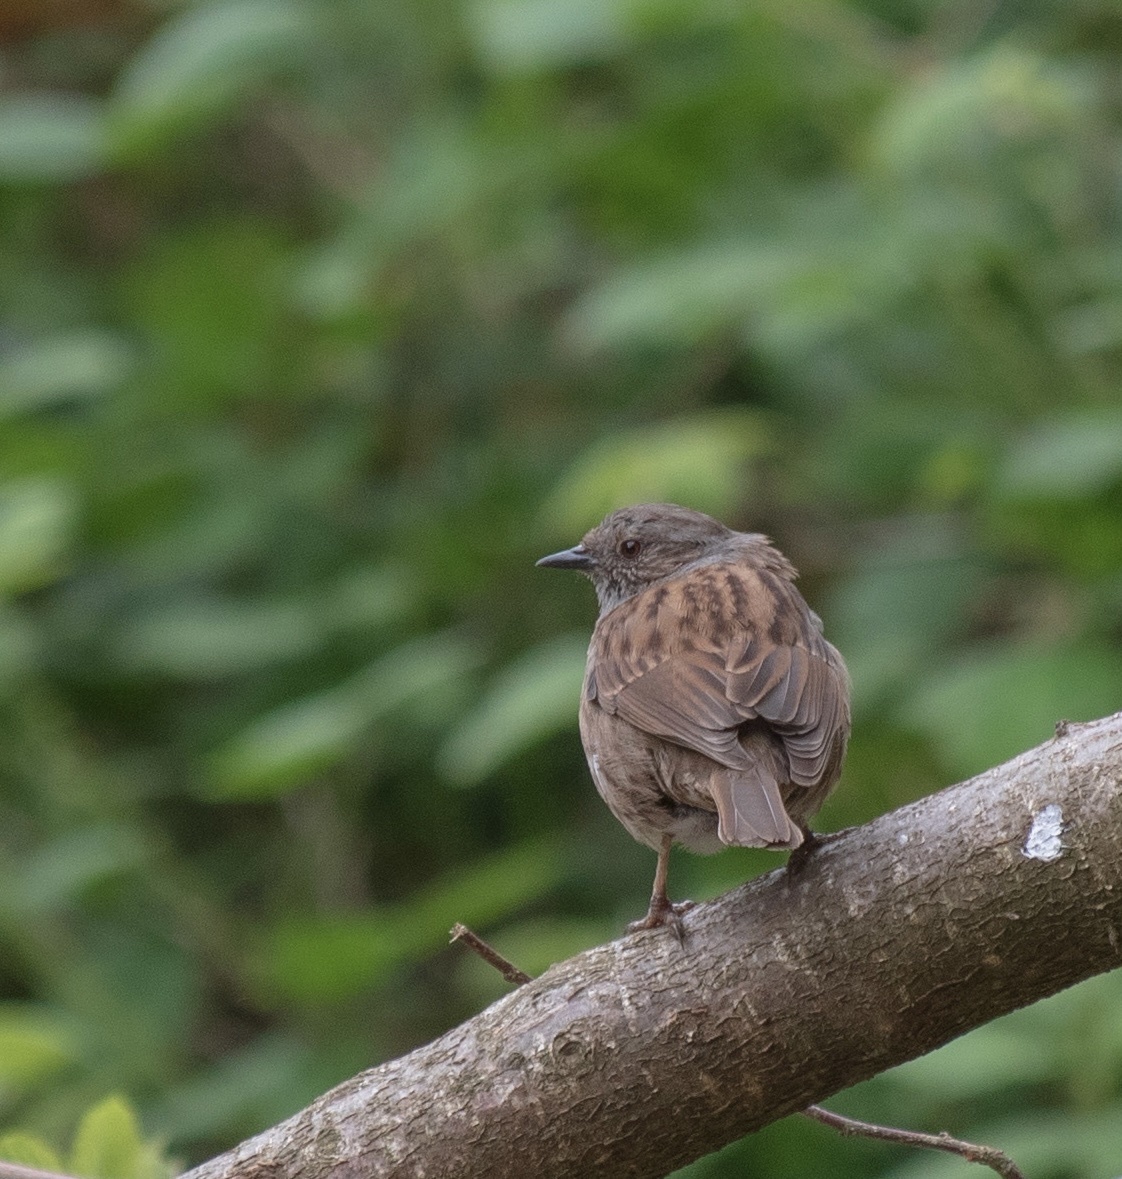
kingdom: Animalia
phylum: Chordata
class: Aves
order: Passeriformes
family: Prunellidae
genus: Prunella
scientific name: Prunella modularis
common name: Dunnock
